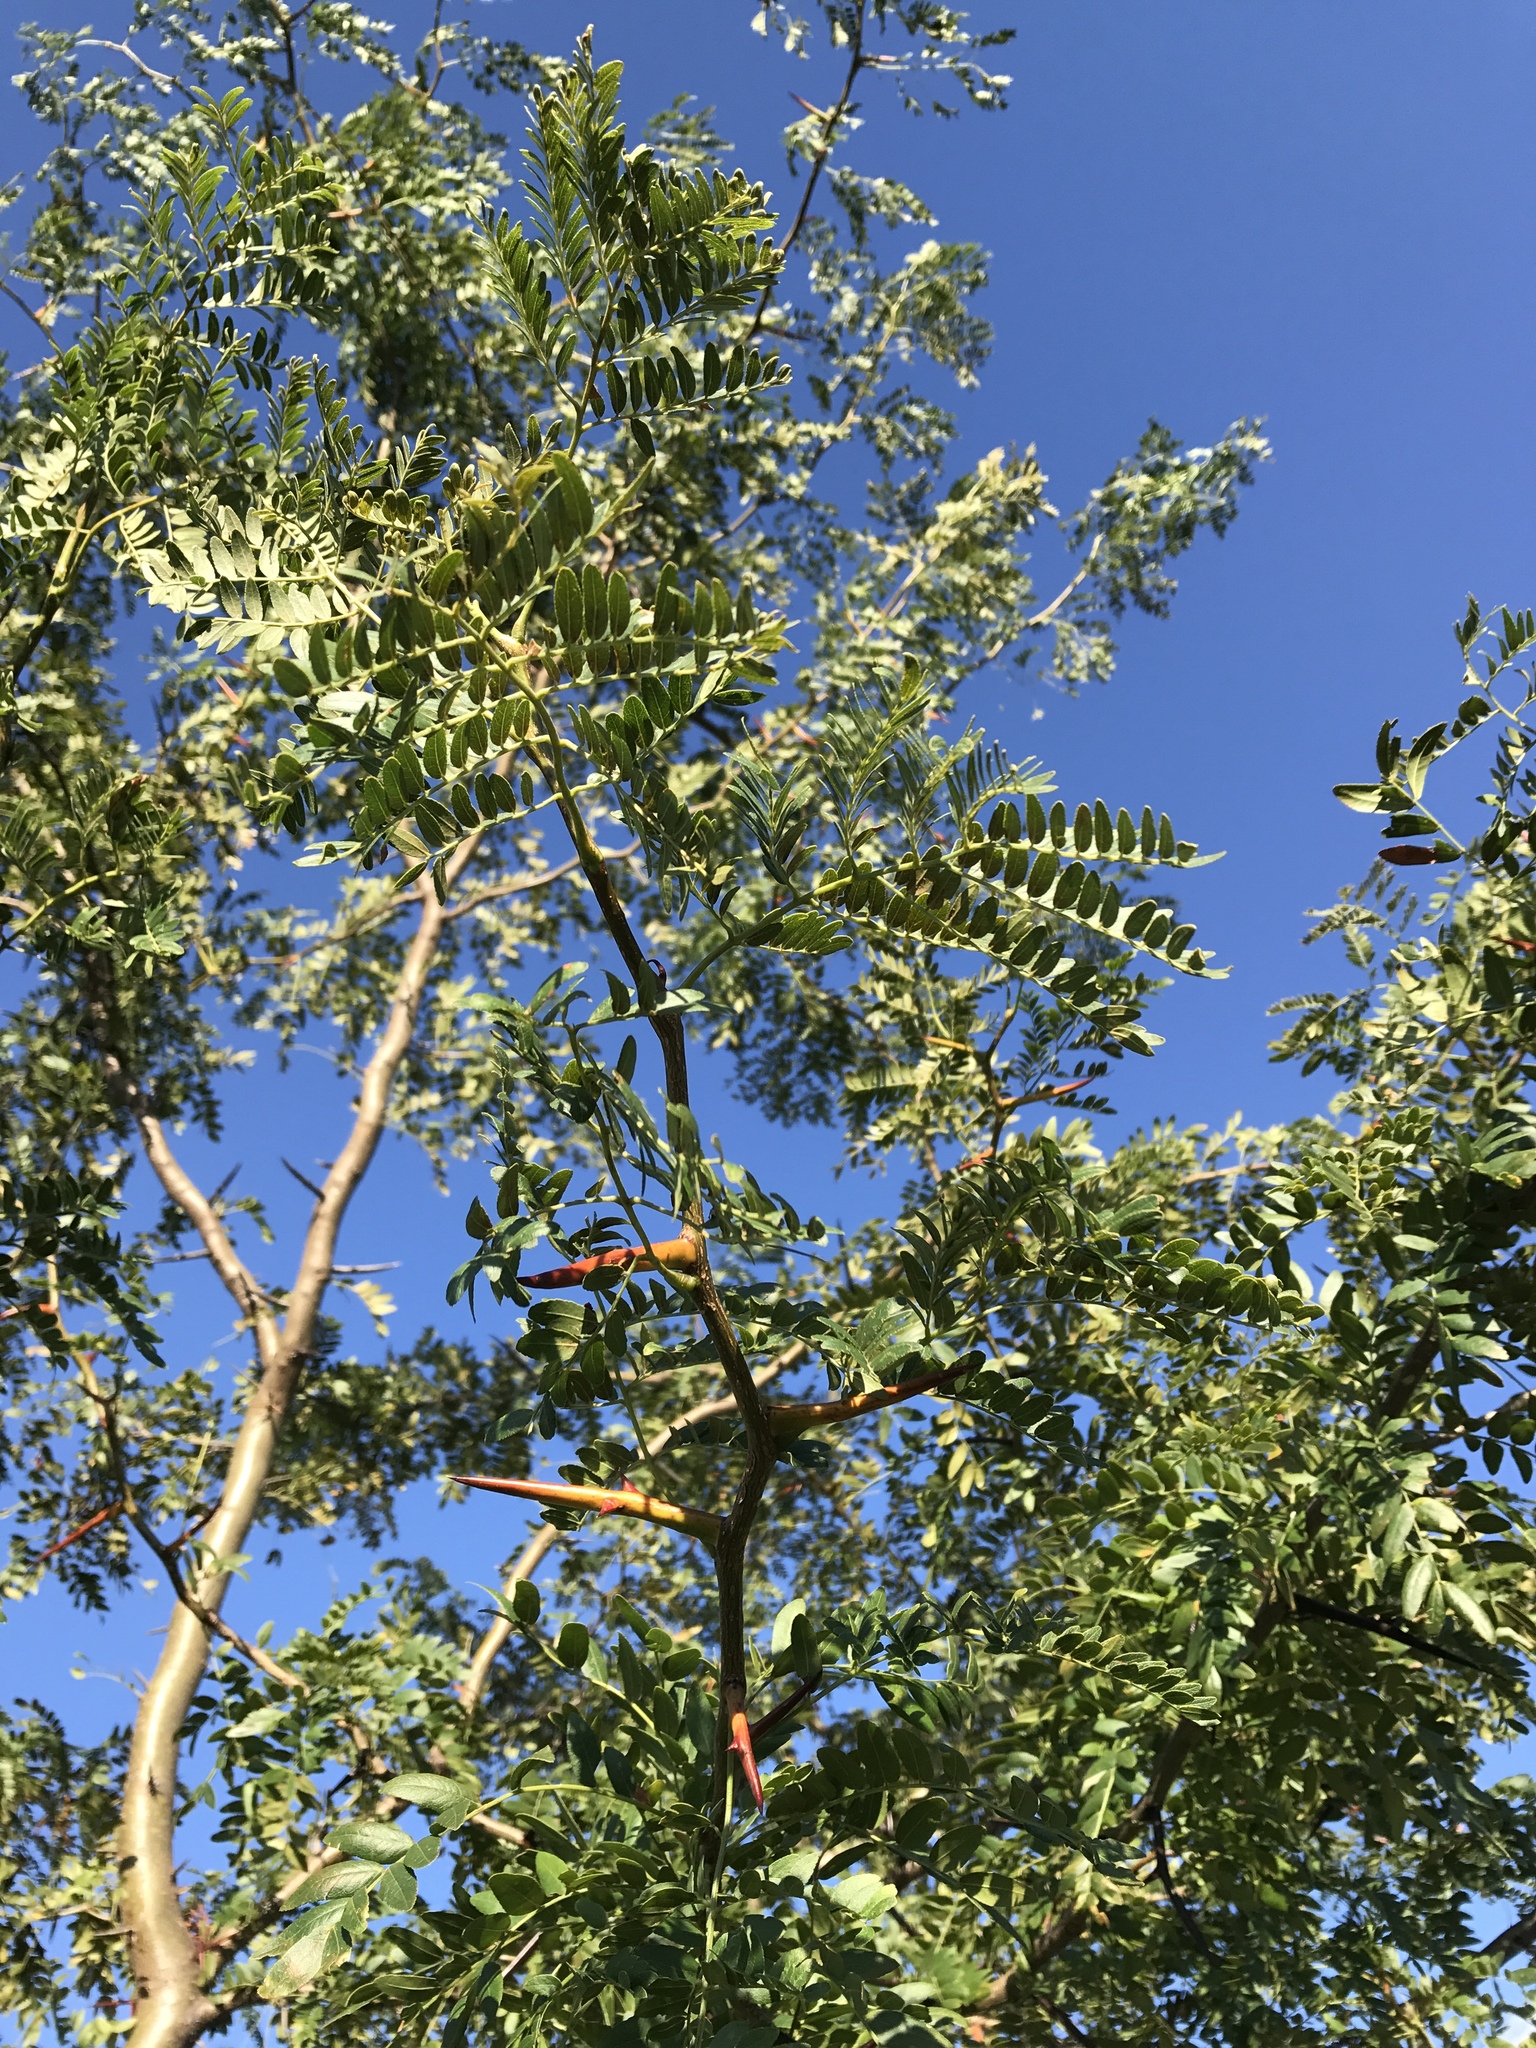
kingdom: Plantae
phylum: Tracheophyta
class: Magnoliopsida
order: Fabales
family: Fabaceae
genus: Gleditsia
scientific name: Gleditsia triacanthos
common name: Common honeylocust
